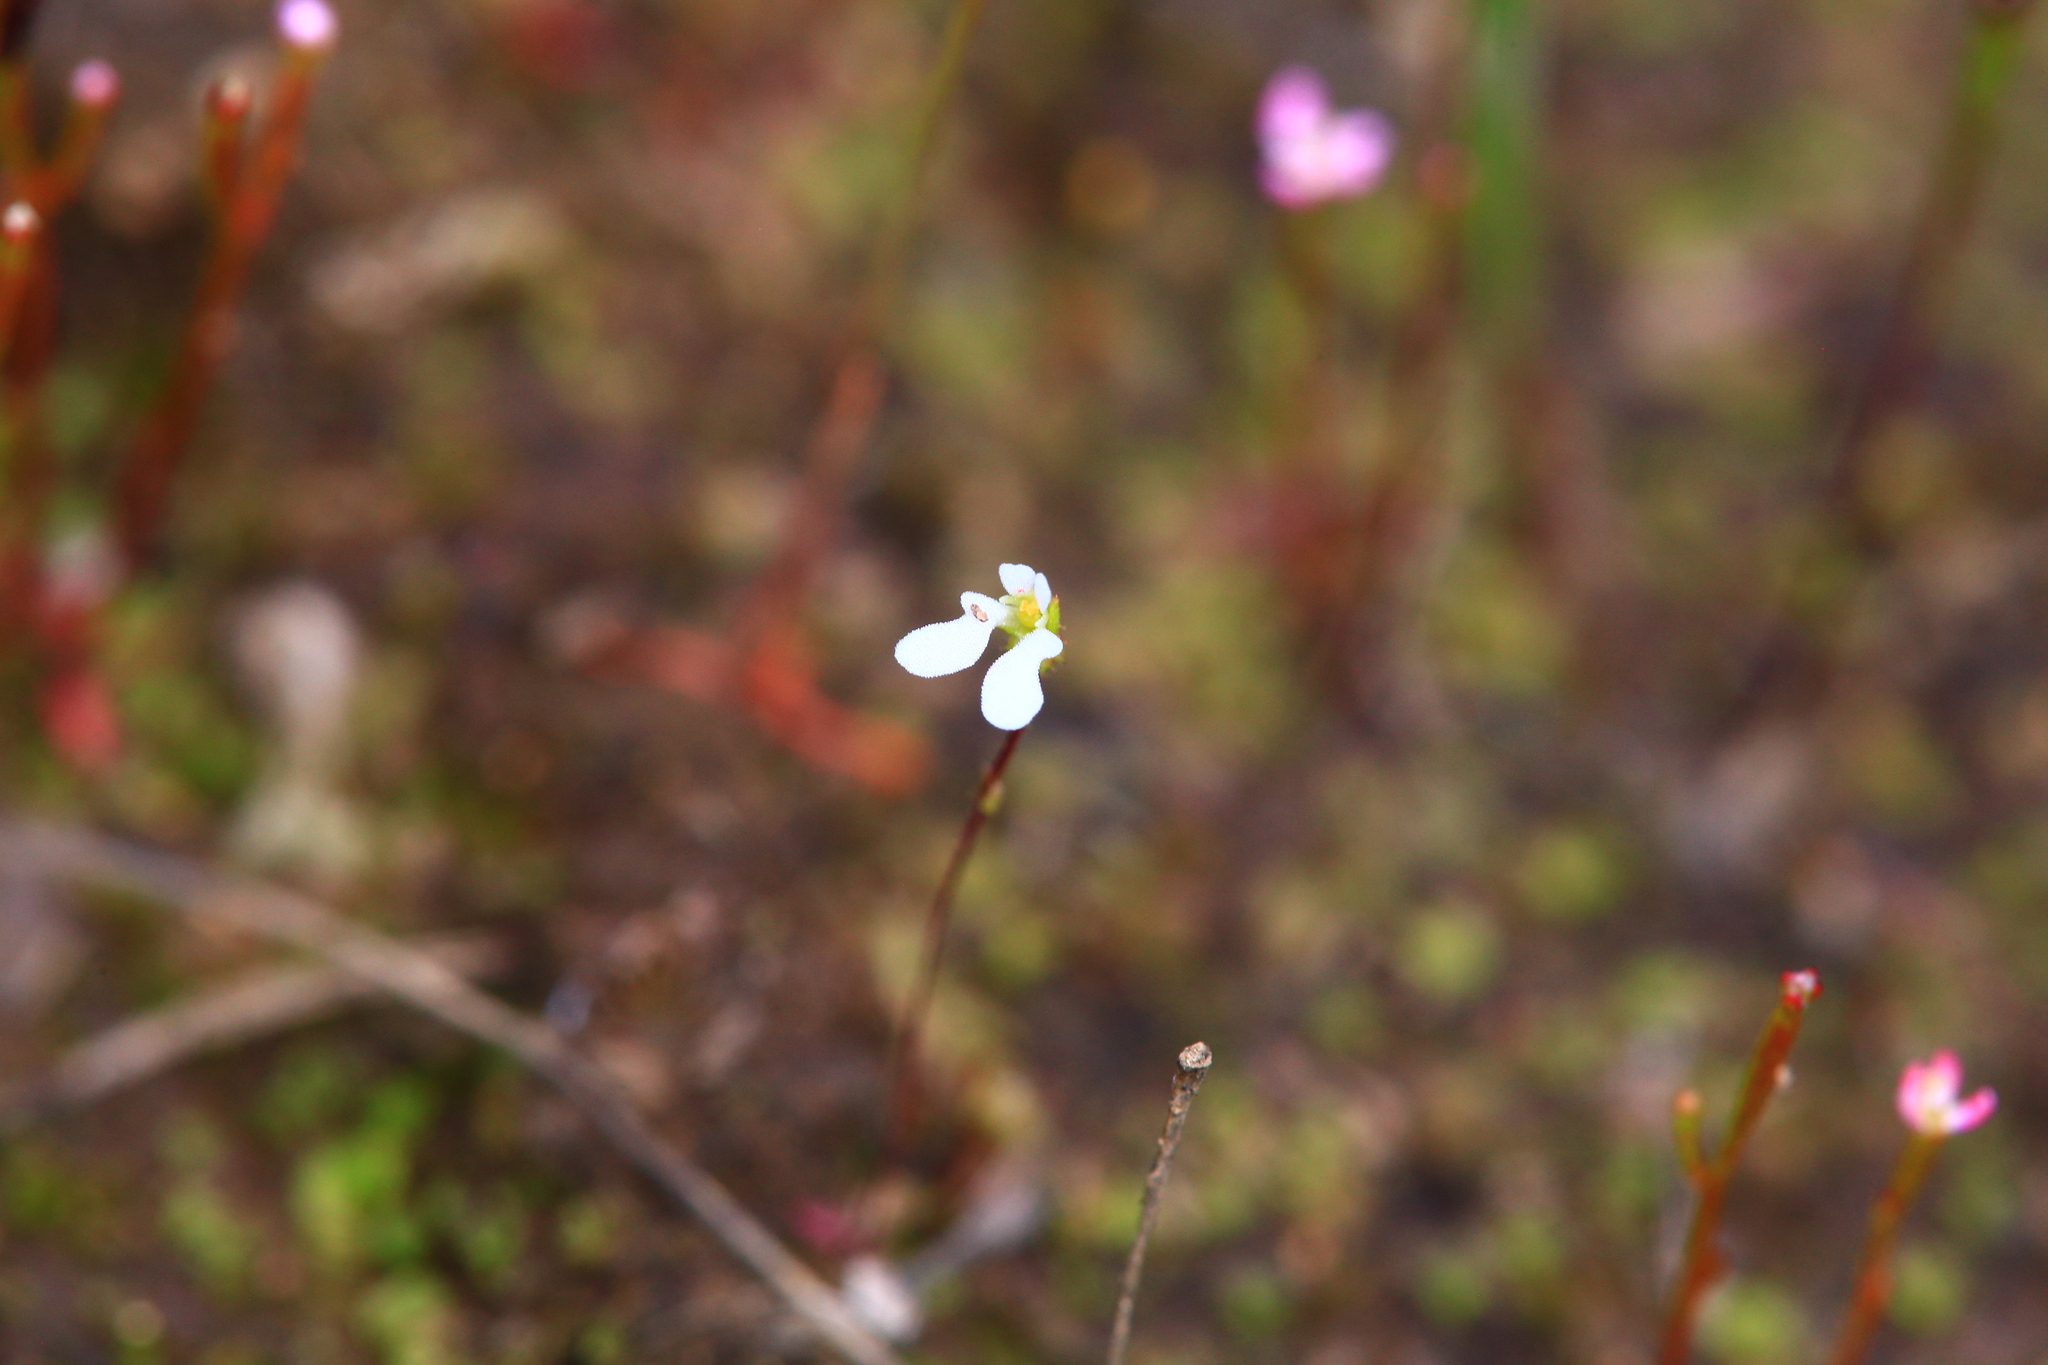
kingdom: Plantae
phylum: Tracheophyta
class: Magnoliopsida
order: Asterales
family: Stylidiaceae
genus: Stylidium
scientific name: Stylidium perpusillum
